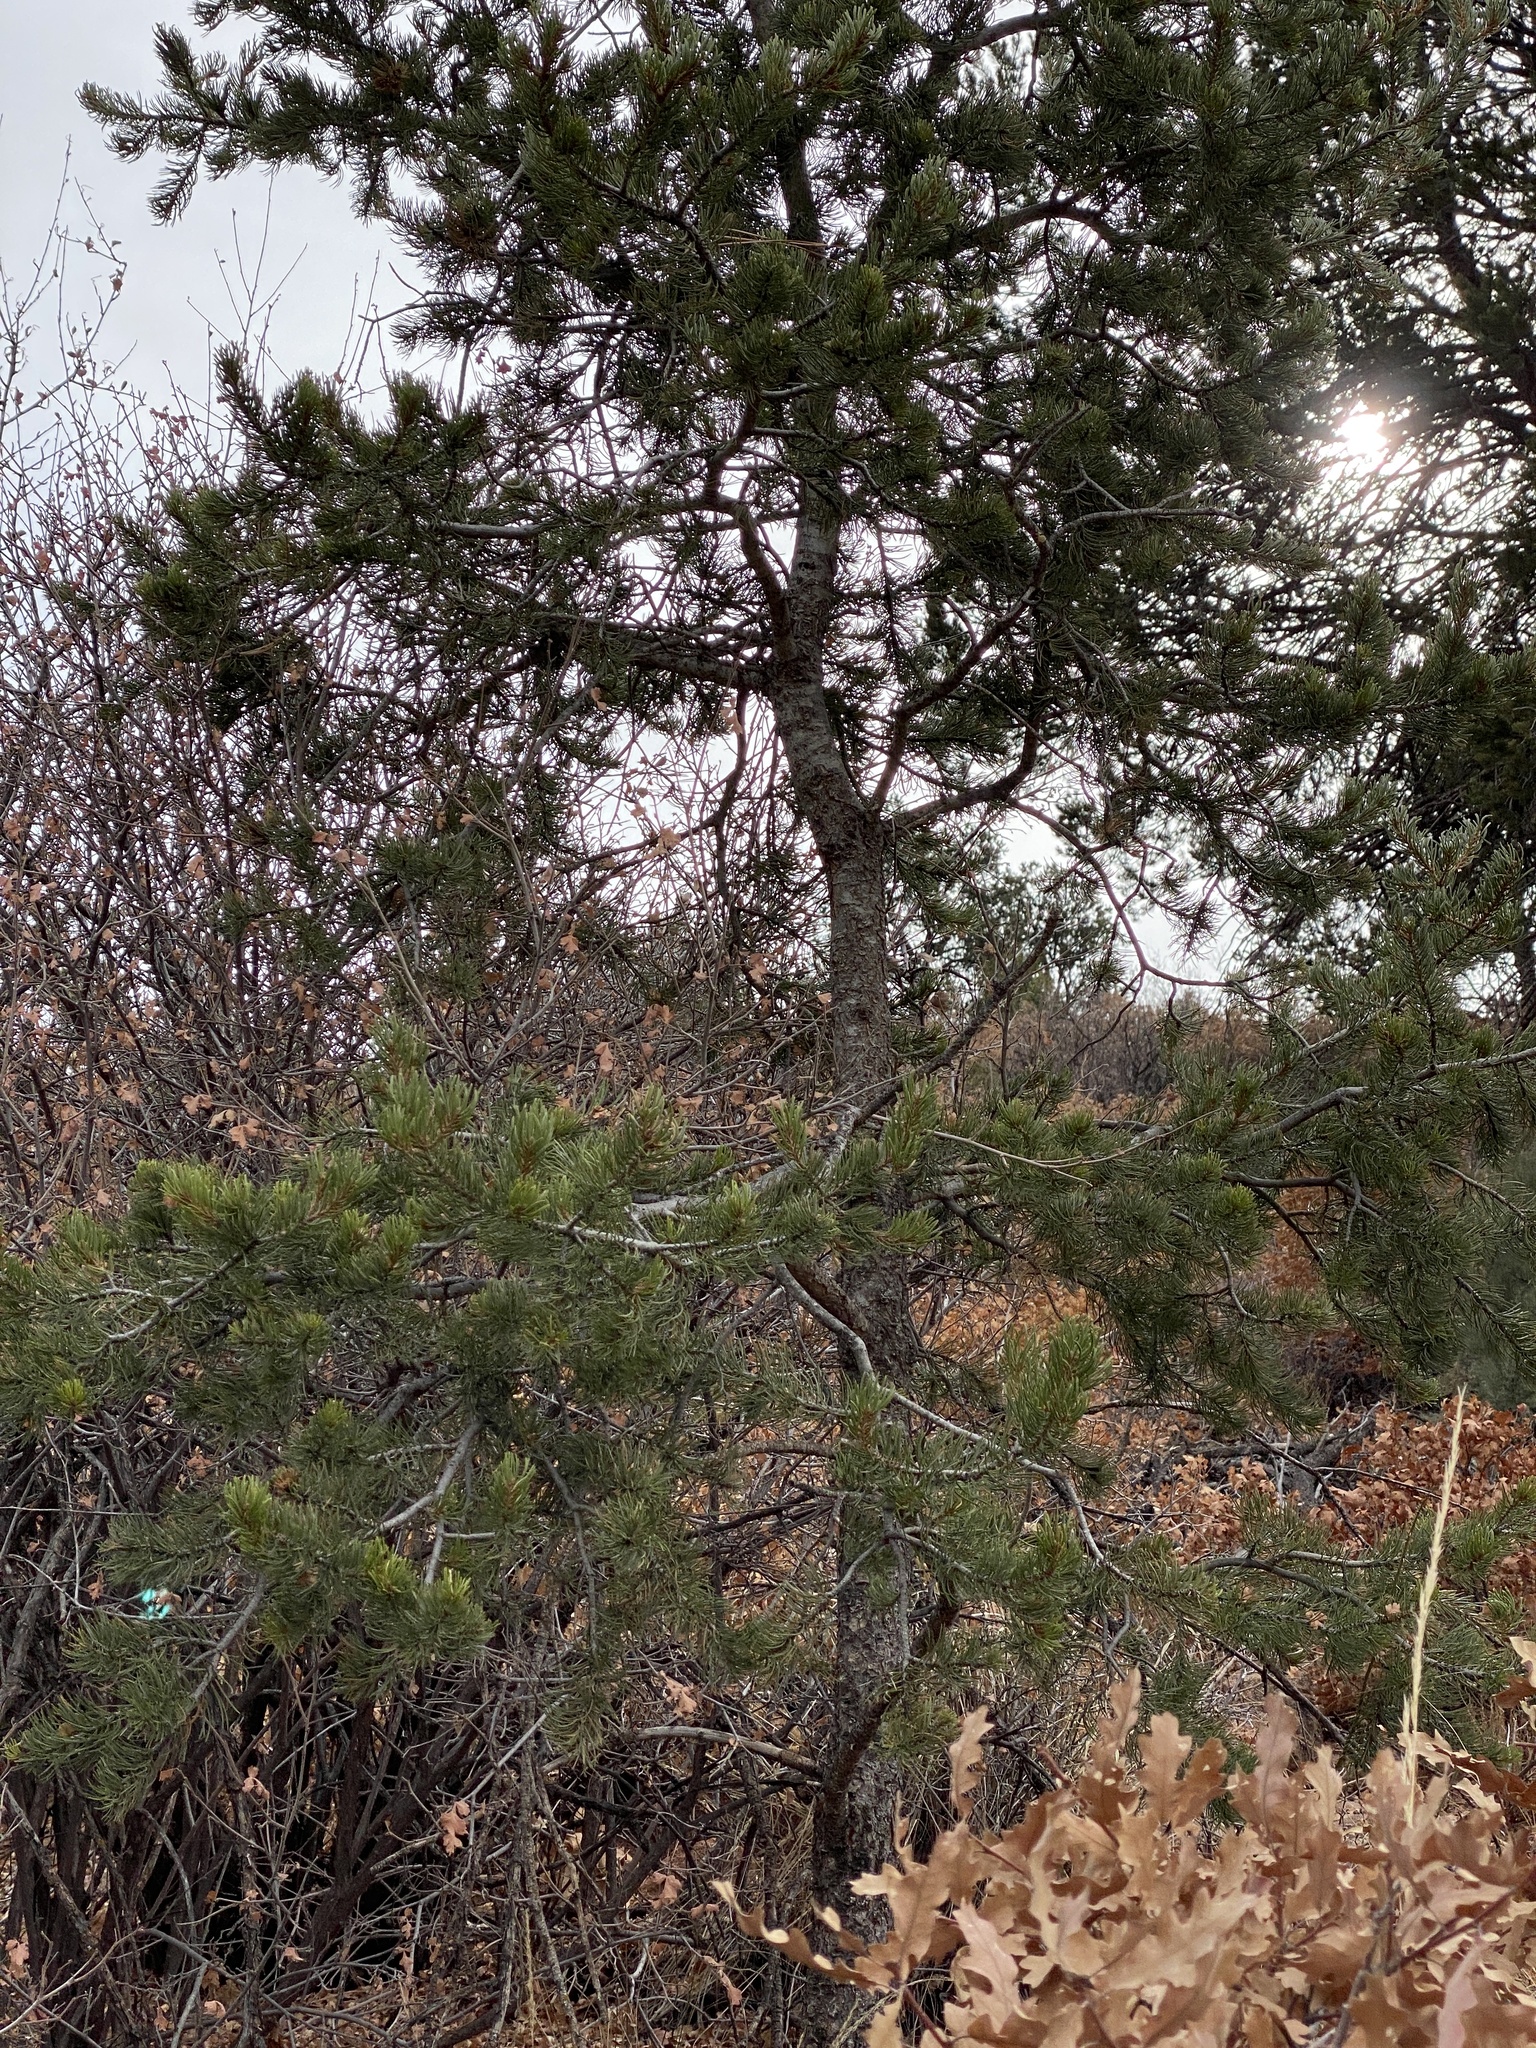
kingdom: Plantae
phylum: Tracheophyta
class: Pinopsida
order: Pinales
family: Pinaceae
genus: Pinus
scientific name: Pinus edulis
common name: Colorado pinyon
